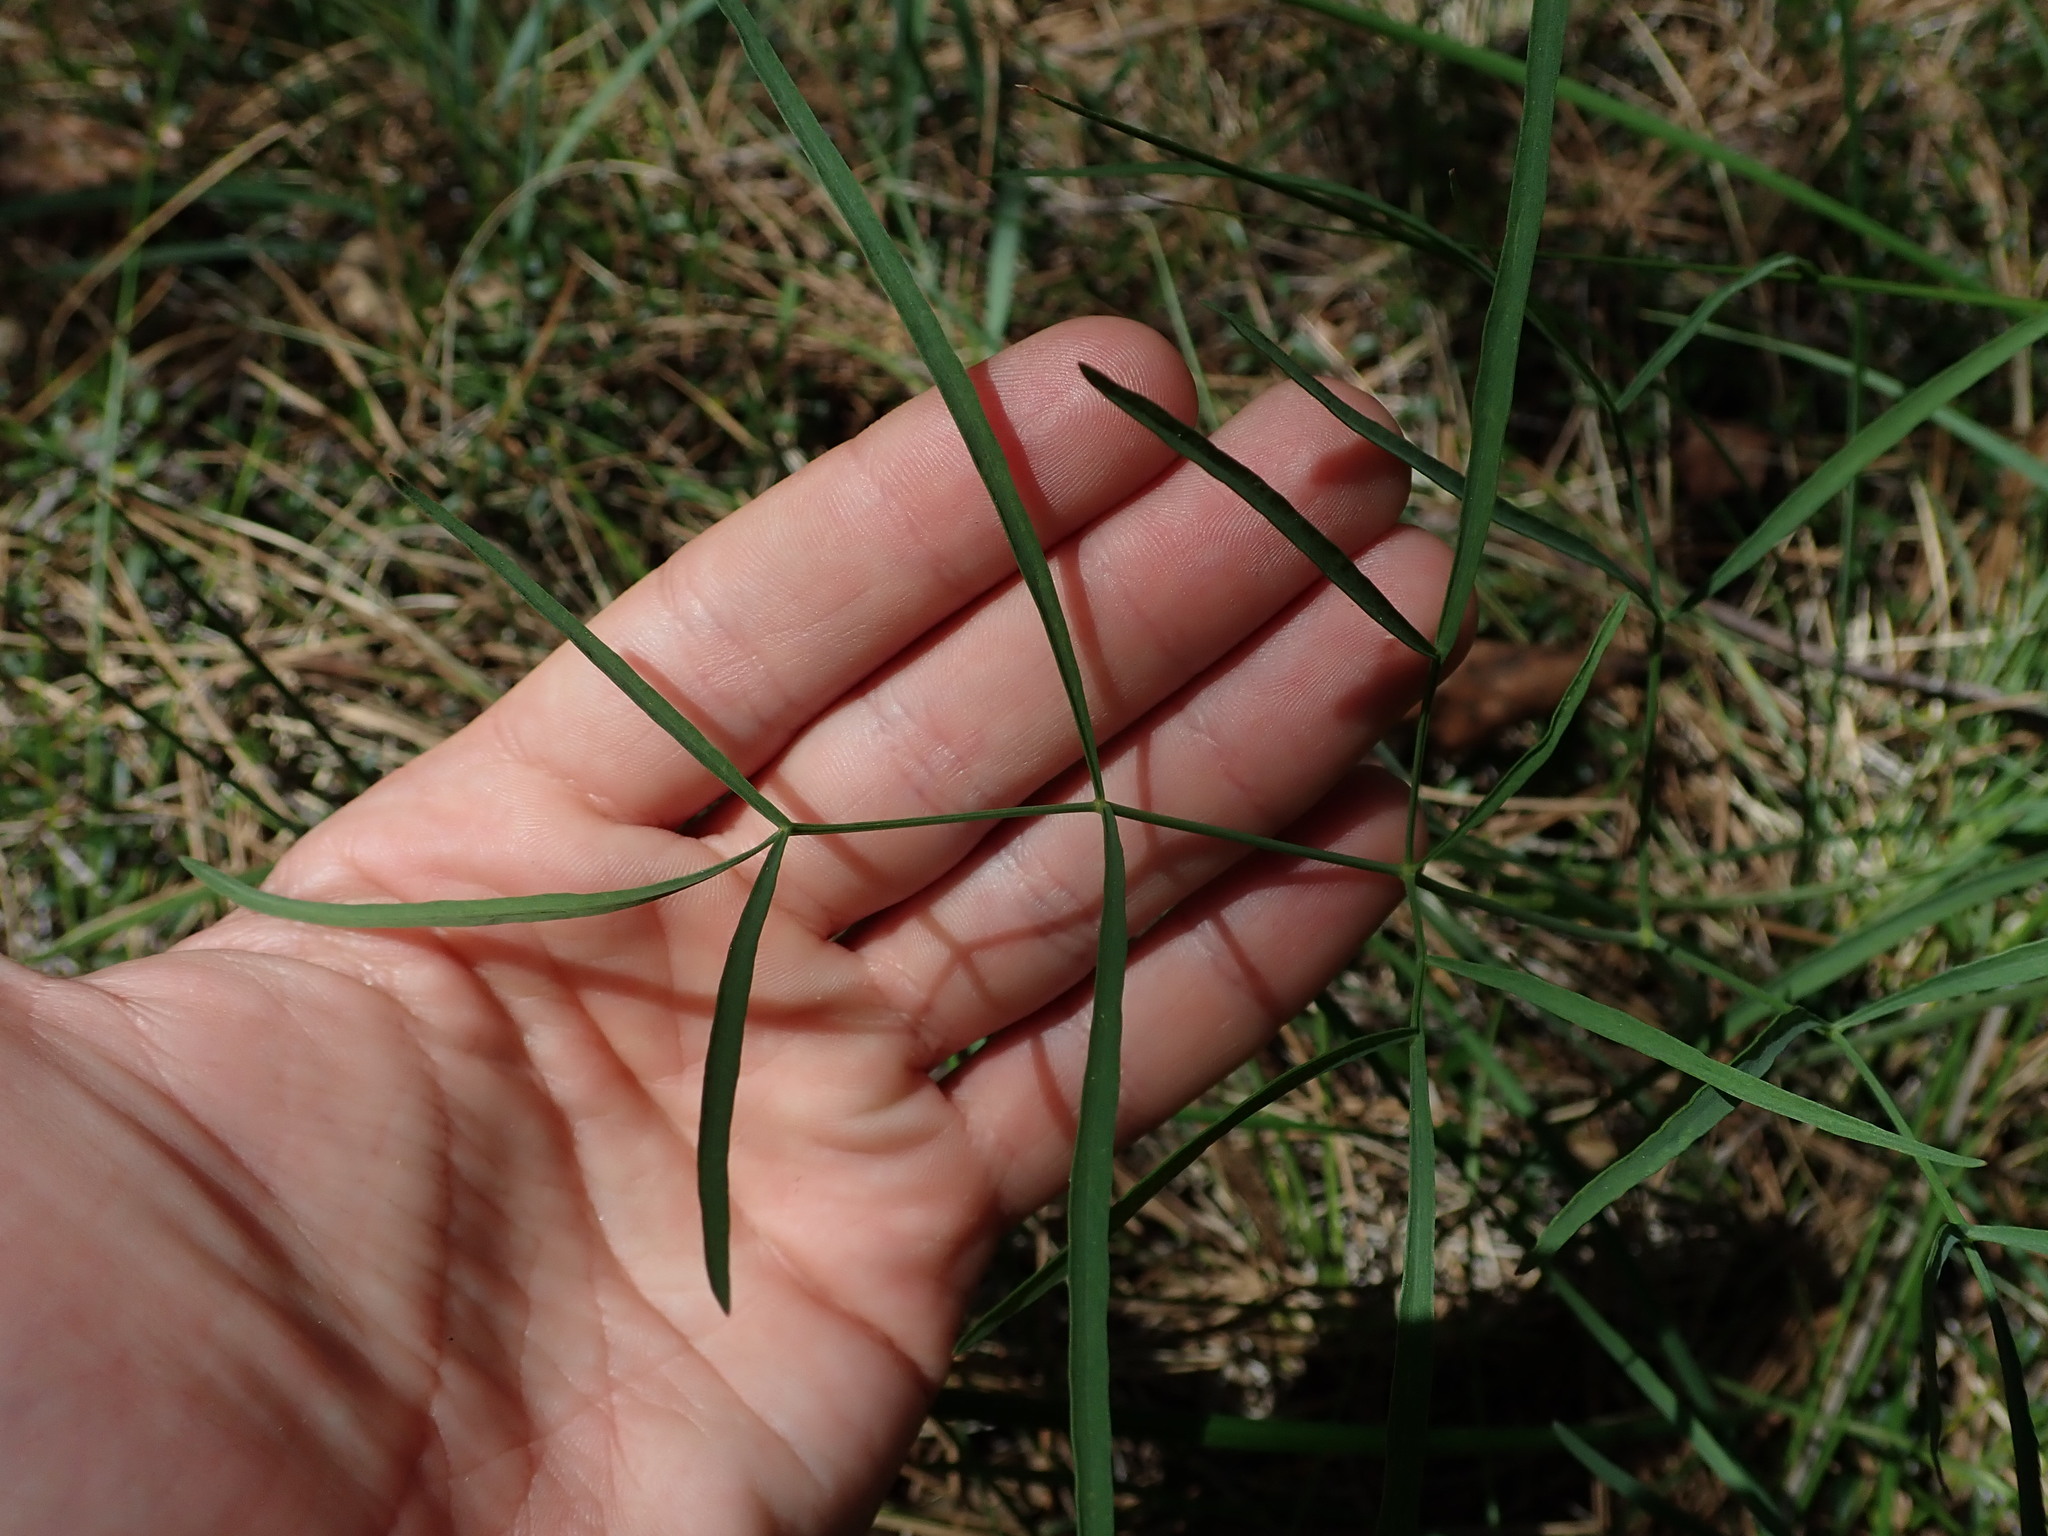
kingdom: Plantae
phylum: Tracheophyta
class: Magnoliopsida
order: Apiales
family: Apiaceae
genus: Lomatium
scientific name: Lomatium triternatum
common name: Ternate lomatium
